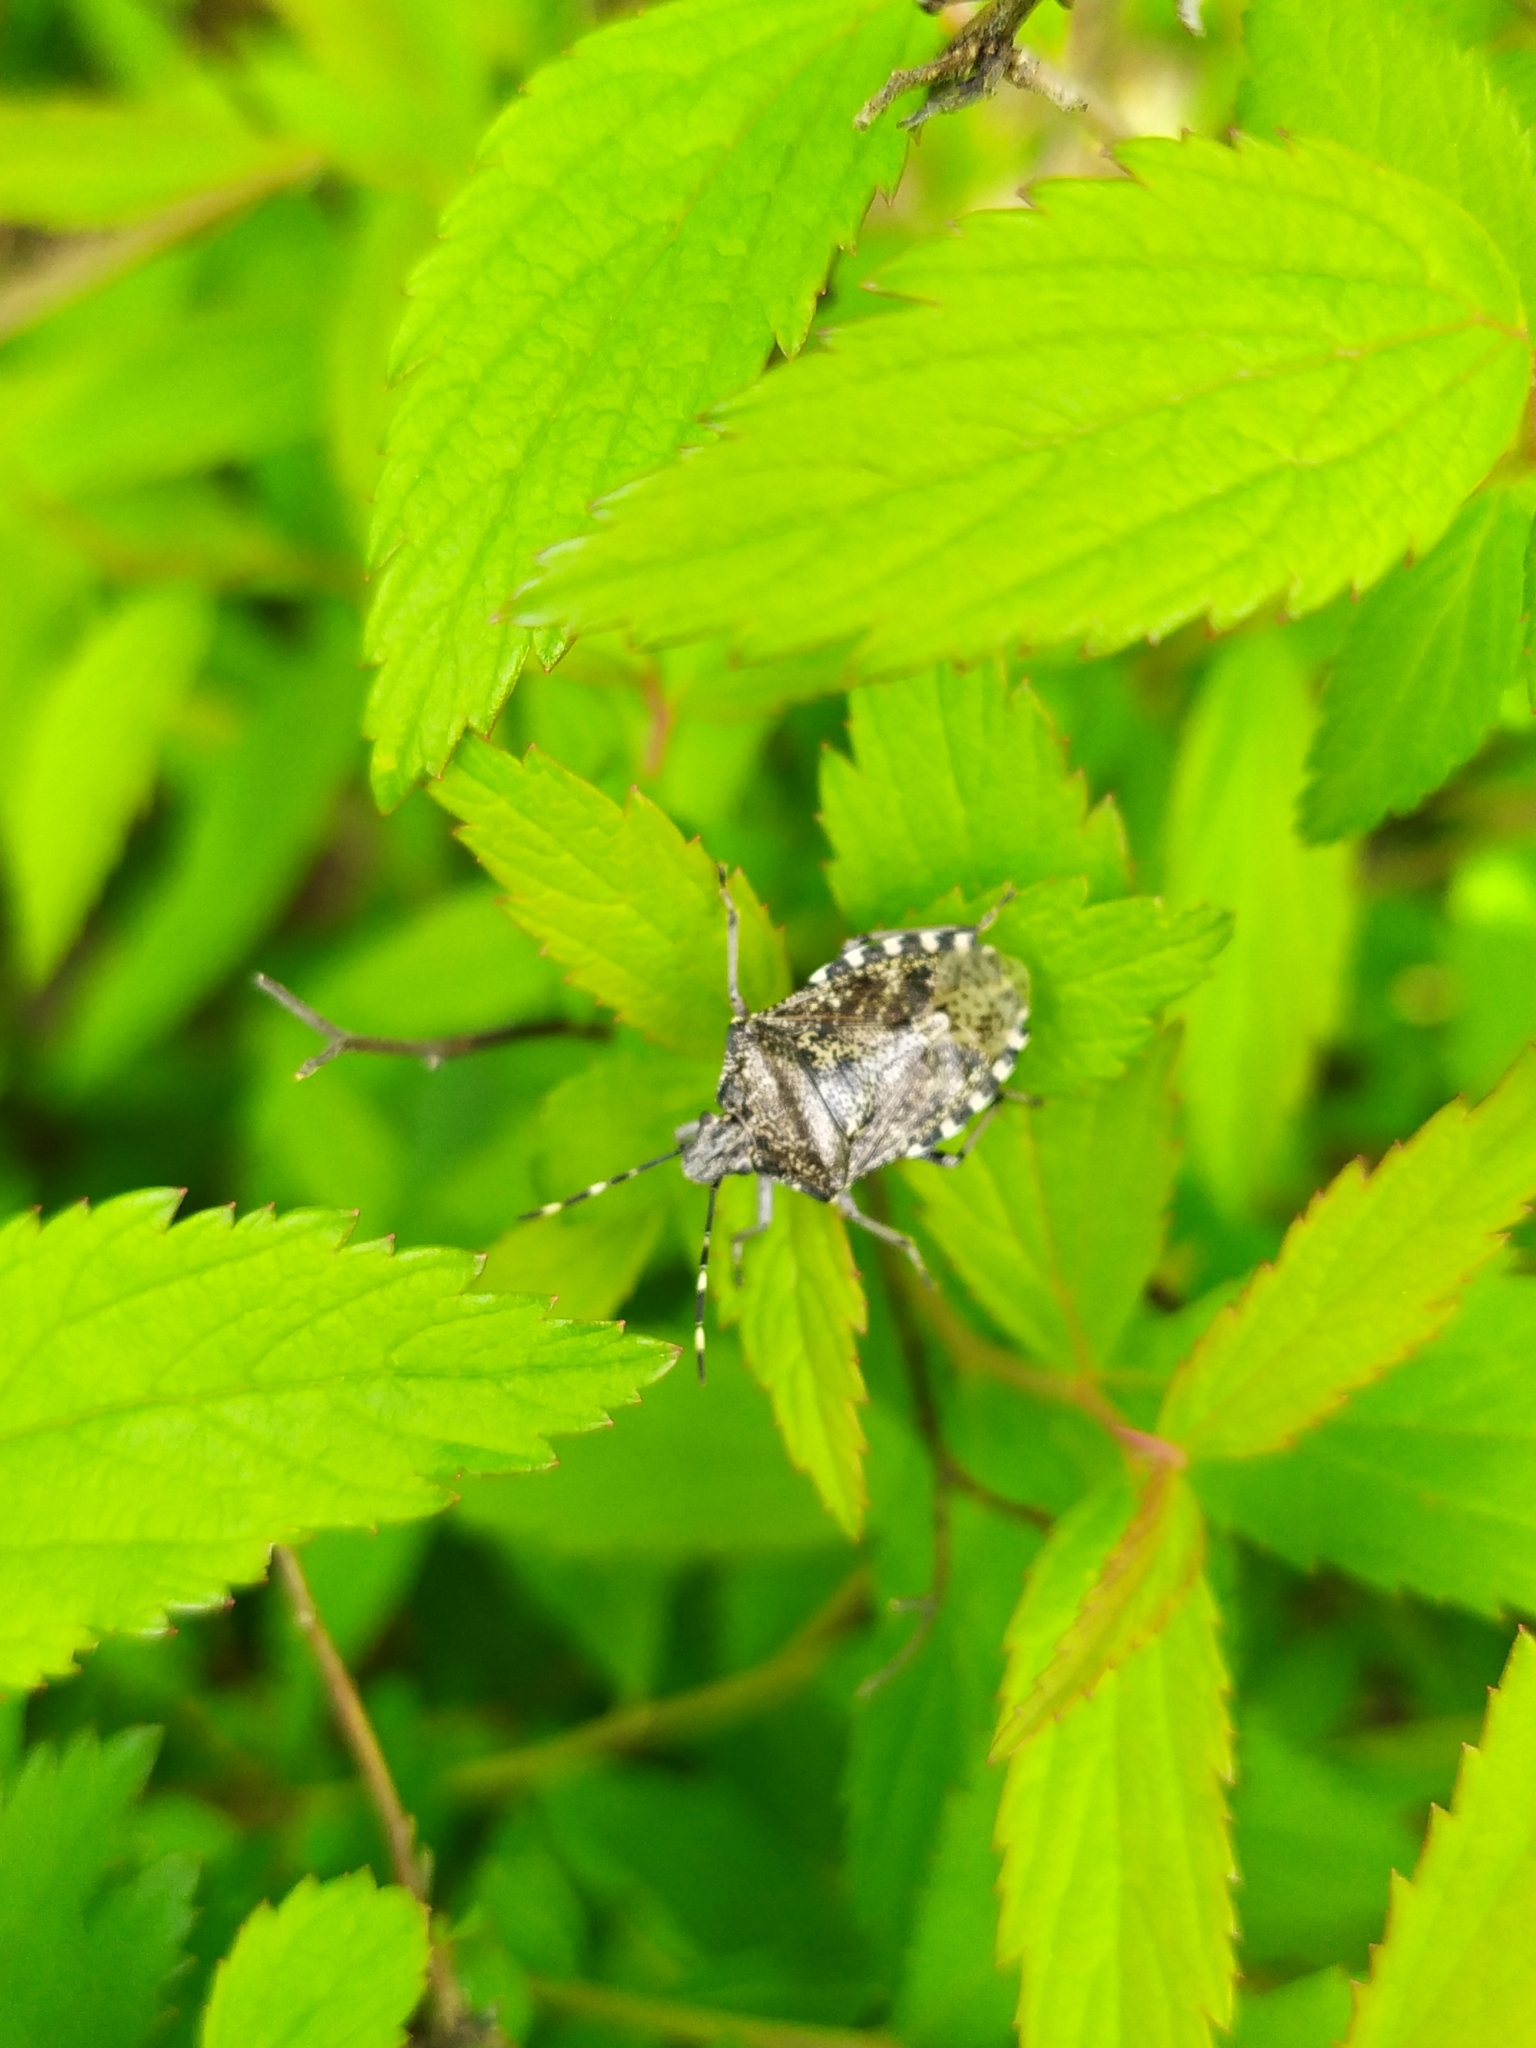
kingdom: Animalia
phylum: Arthropoda
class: Insecta
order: Hemiptera
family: Pentatomidae
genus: Rhaphigaster
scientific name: Rhaphigaster nebulosa
